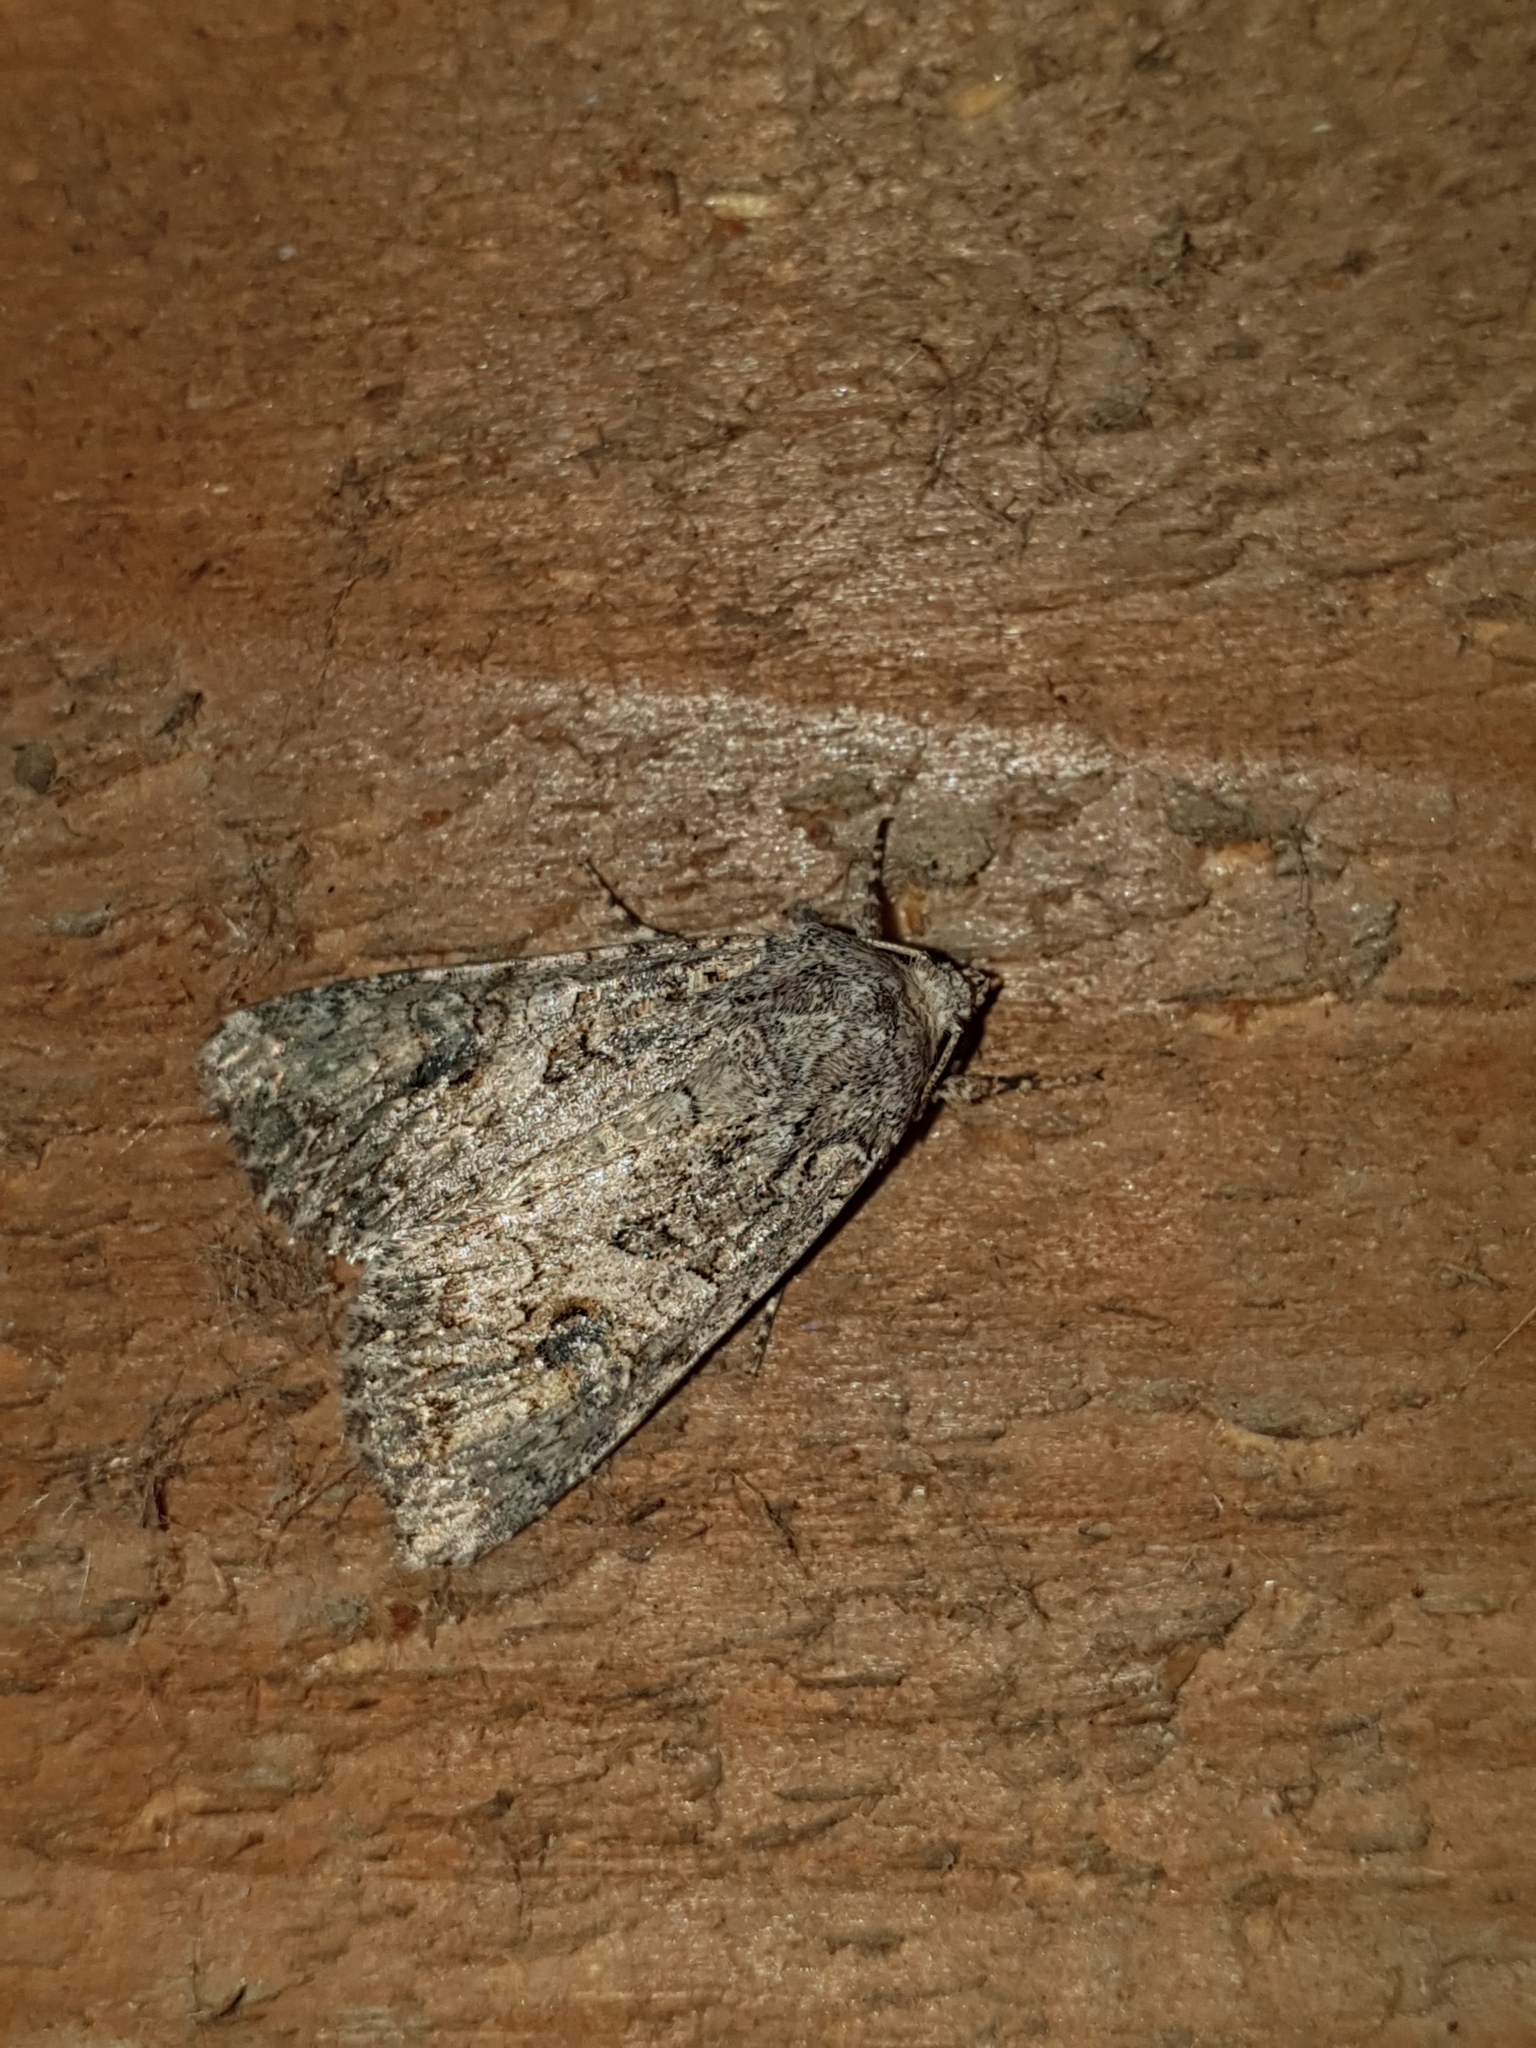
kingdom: Animalia
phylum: Arthropoda
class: Insecta
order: Lepidoptera
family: Noctuidae
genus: Anarta
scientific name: Anarta trifolii
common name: Clover cutworm moth
